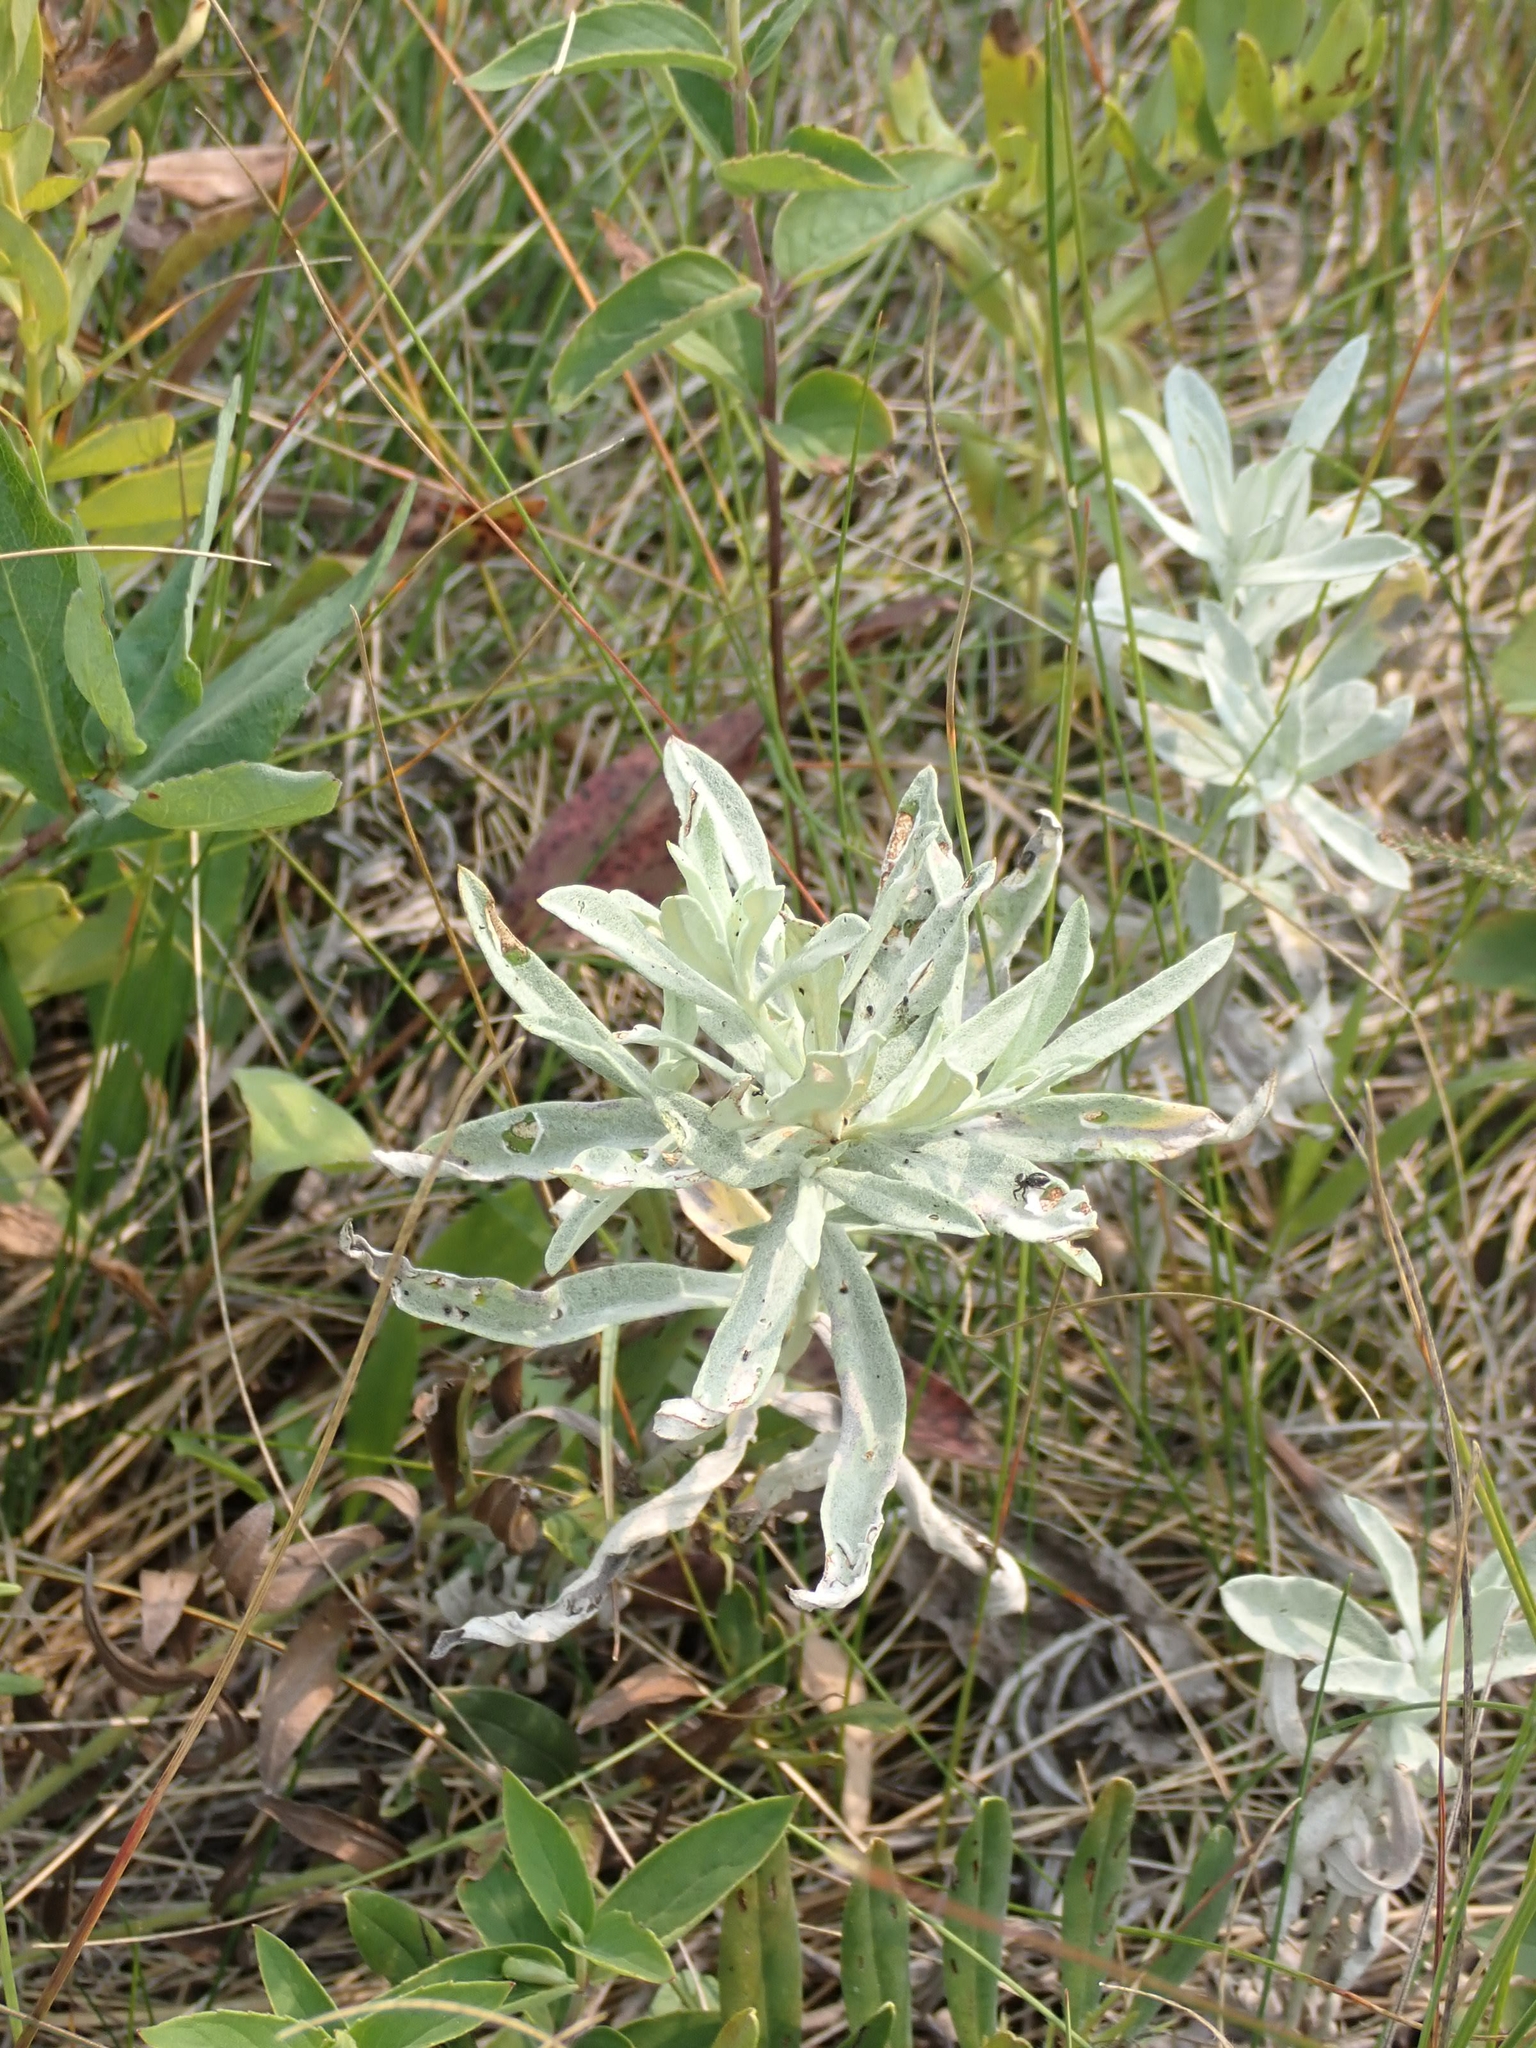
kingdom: Plantae
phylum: Tracheophyta
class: Magnoliopsida
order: Asterales
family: Asteraceae
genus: Artemisia
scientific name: Artemisia ludoviciana
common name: Western mugwort
